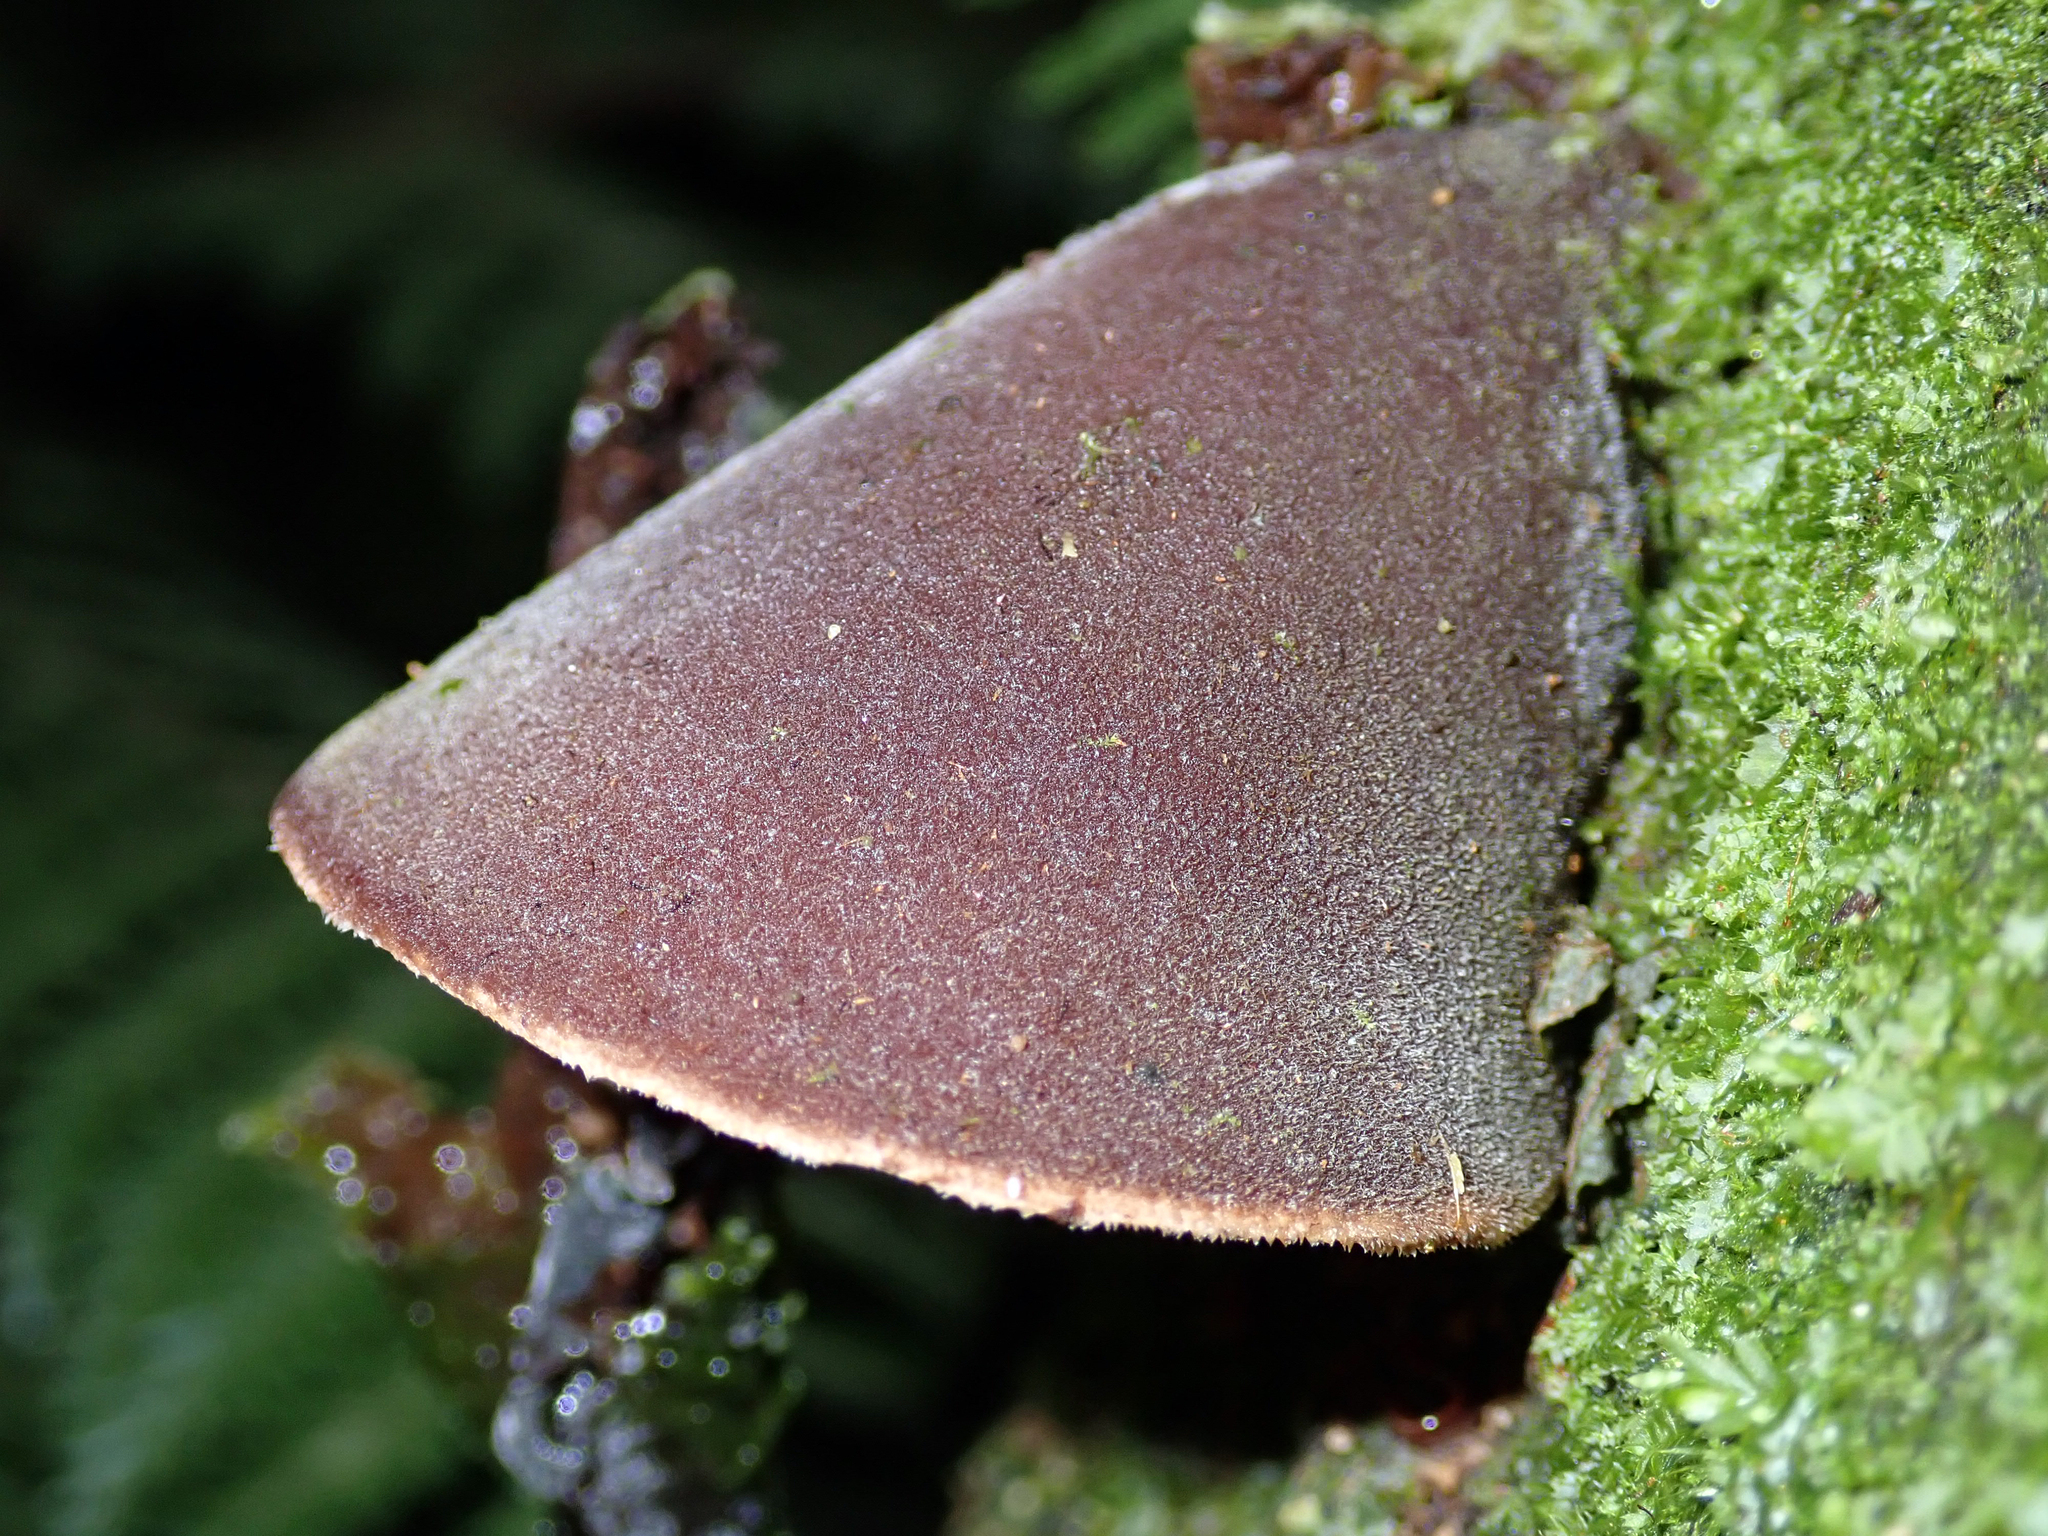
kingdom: Fungi
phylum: Basidiomycota
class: Agaricomycetes
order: Auriculariales
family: Auriculariaceae
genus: Auricularia
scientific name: Auricularia cornea
